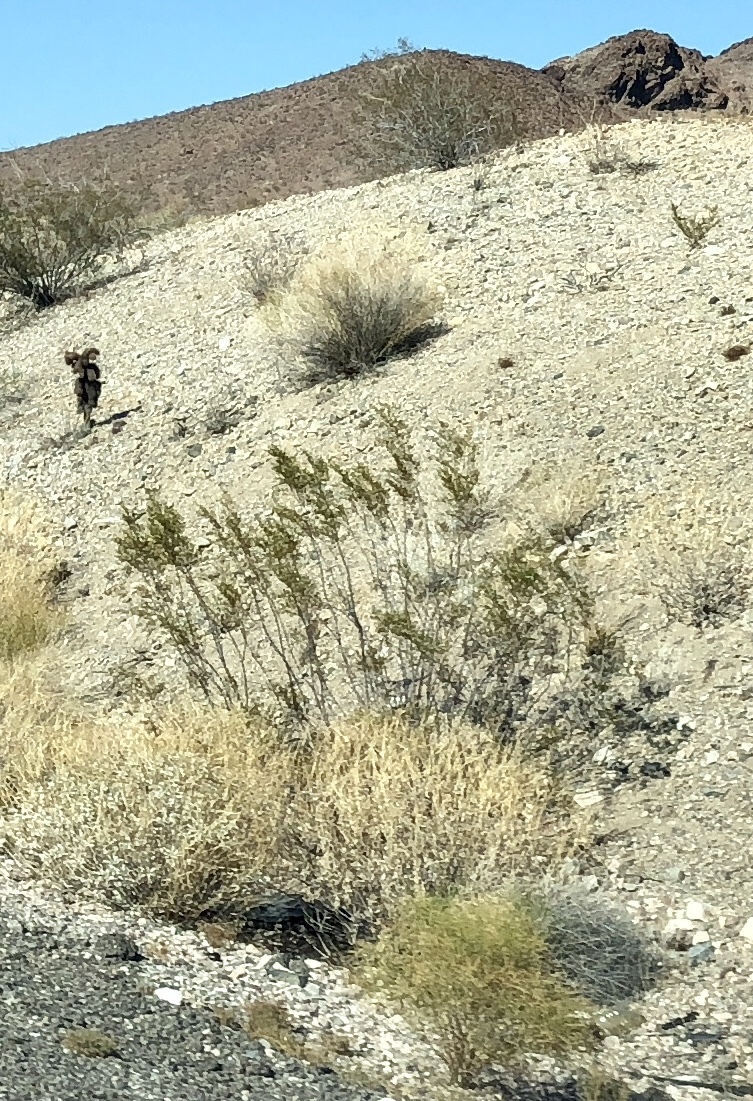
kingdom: Plantae
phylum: Tracheophyta
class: Magnoliopsida
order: Zygophyllales
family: Zygophyllaceae
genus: Larrea
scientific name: Larrea tridentata
